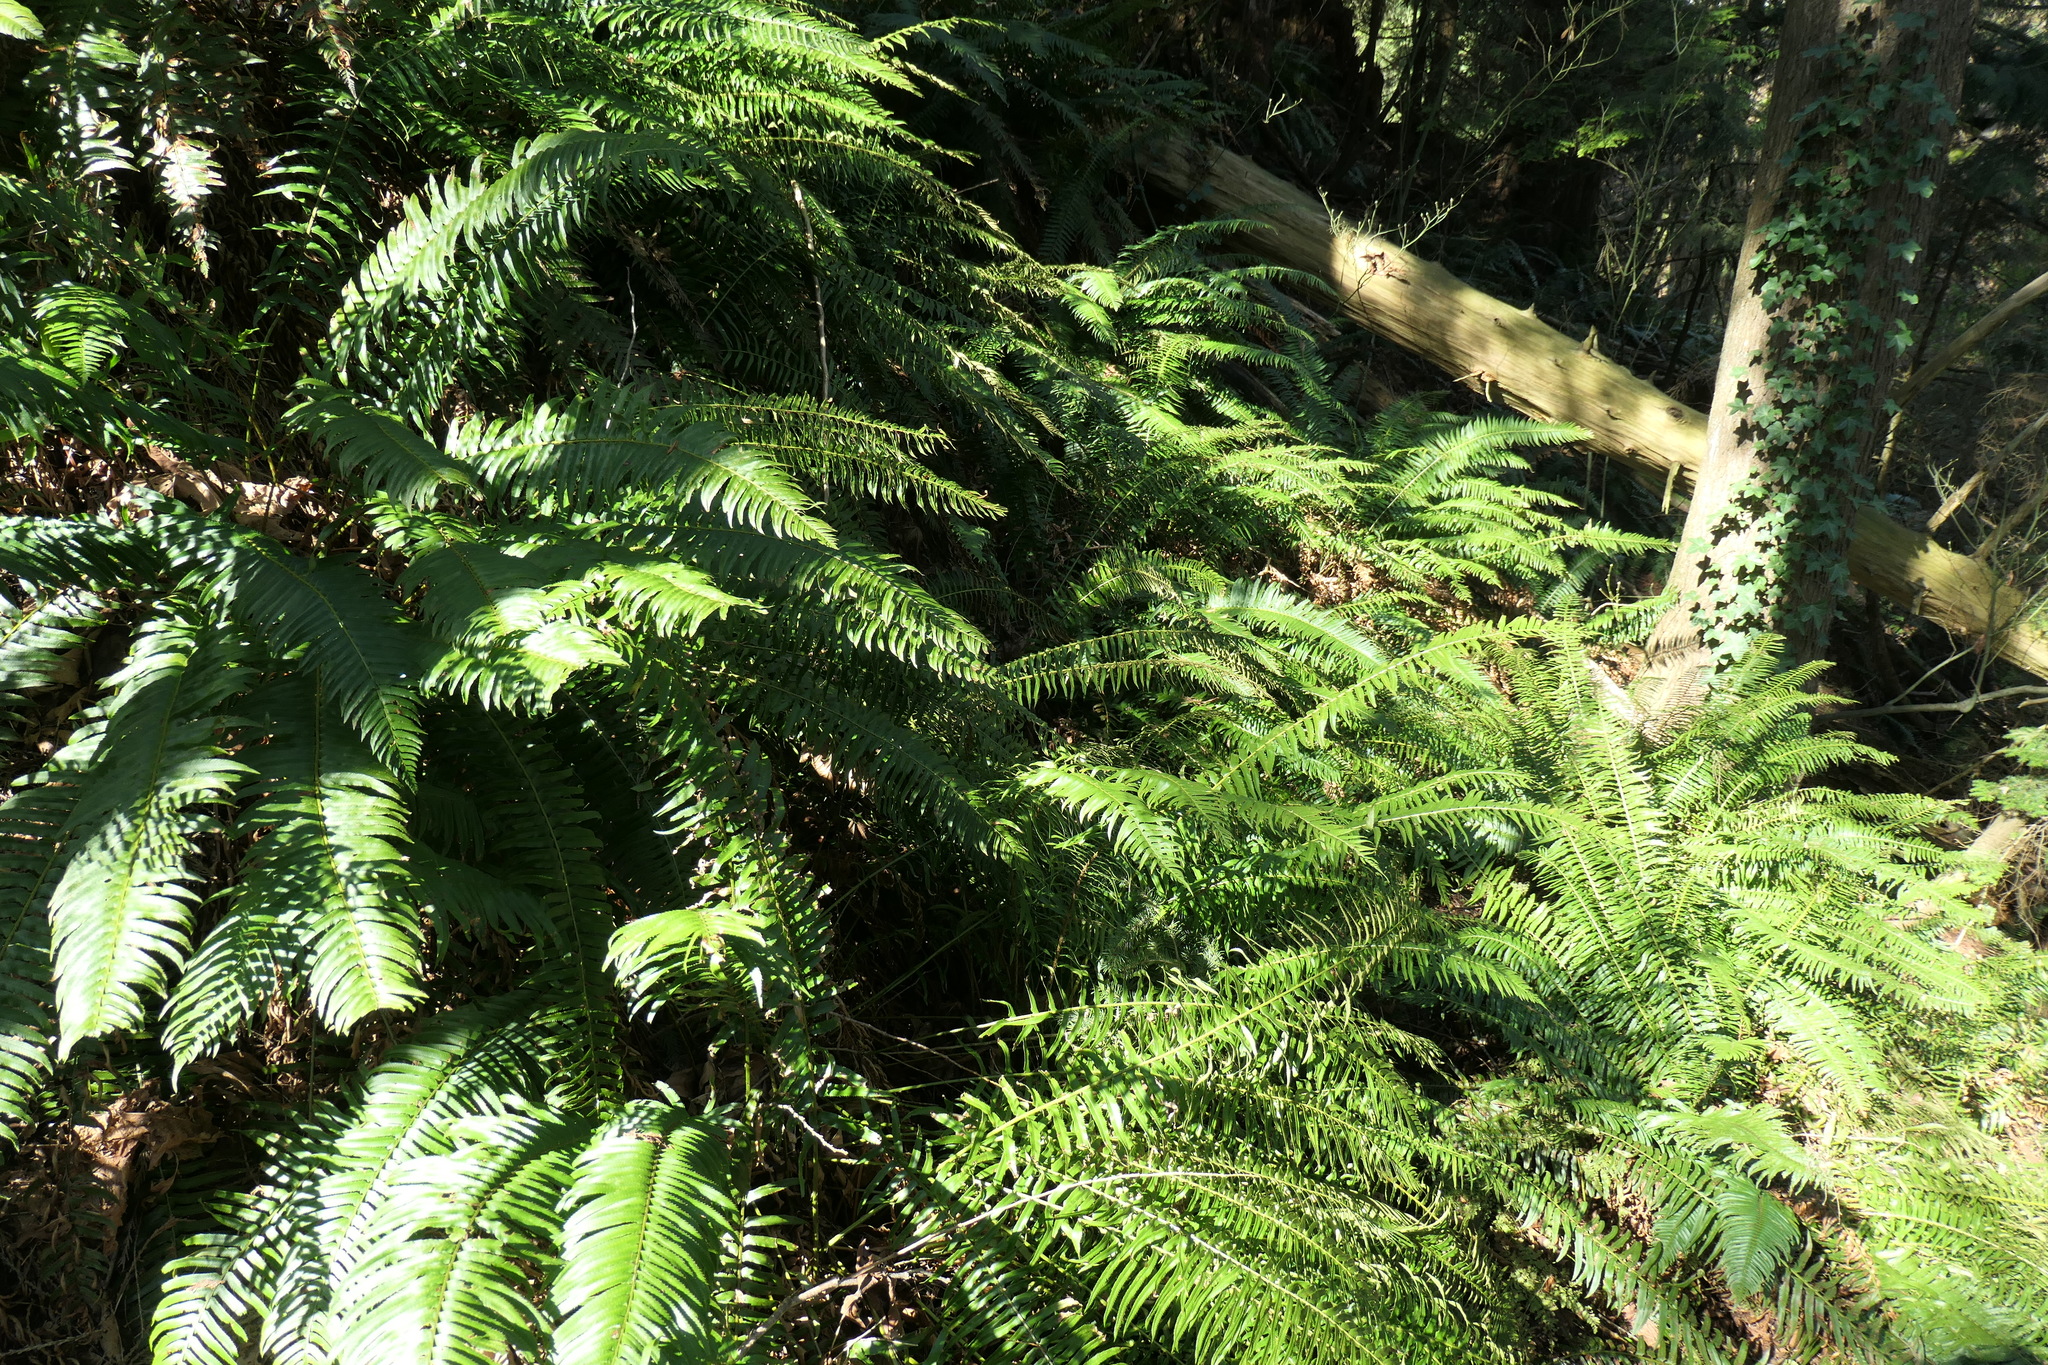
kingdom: Plantae
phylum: Tracheophyta
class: Polypodiopsida
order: Polypodiales
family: Dryopteridaceae
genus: Polystichum
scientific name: Polystichum munitum
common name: Western sword-fern
